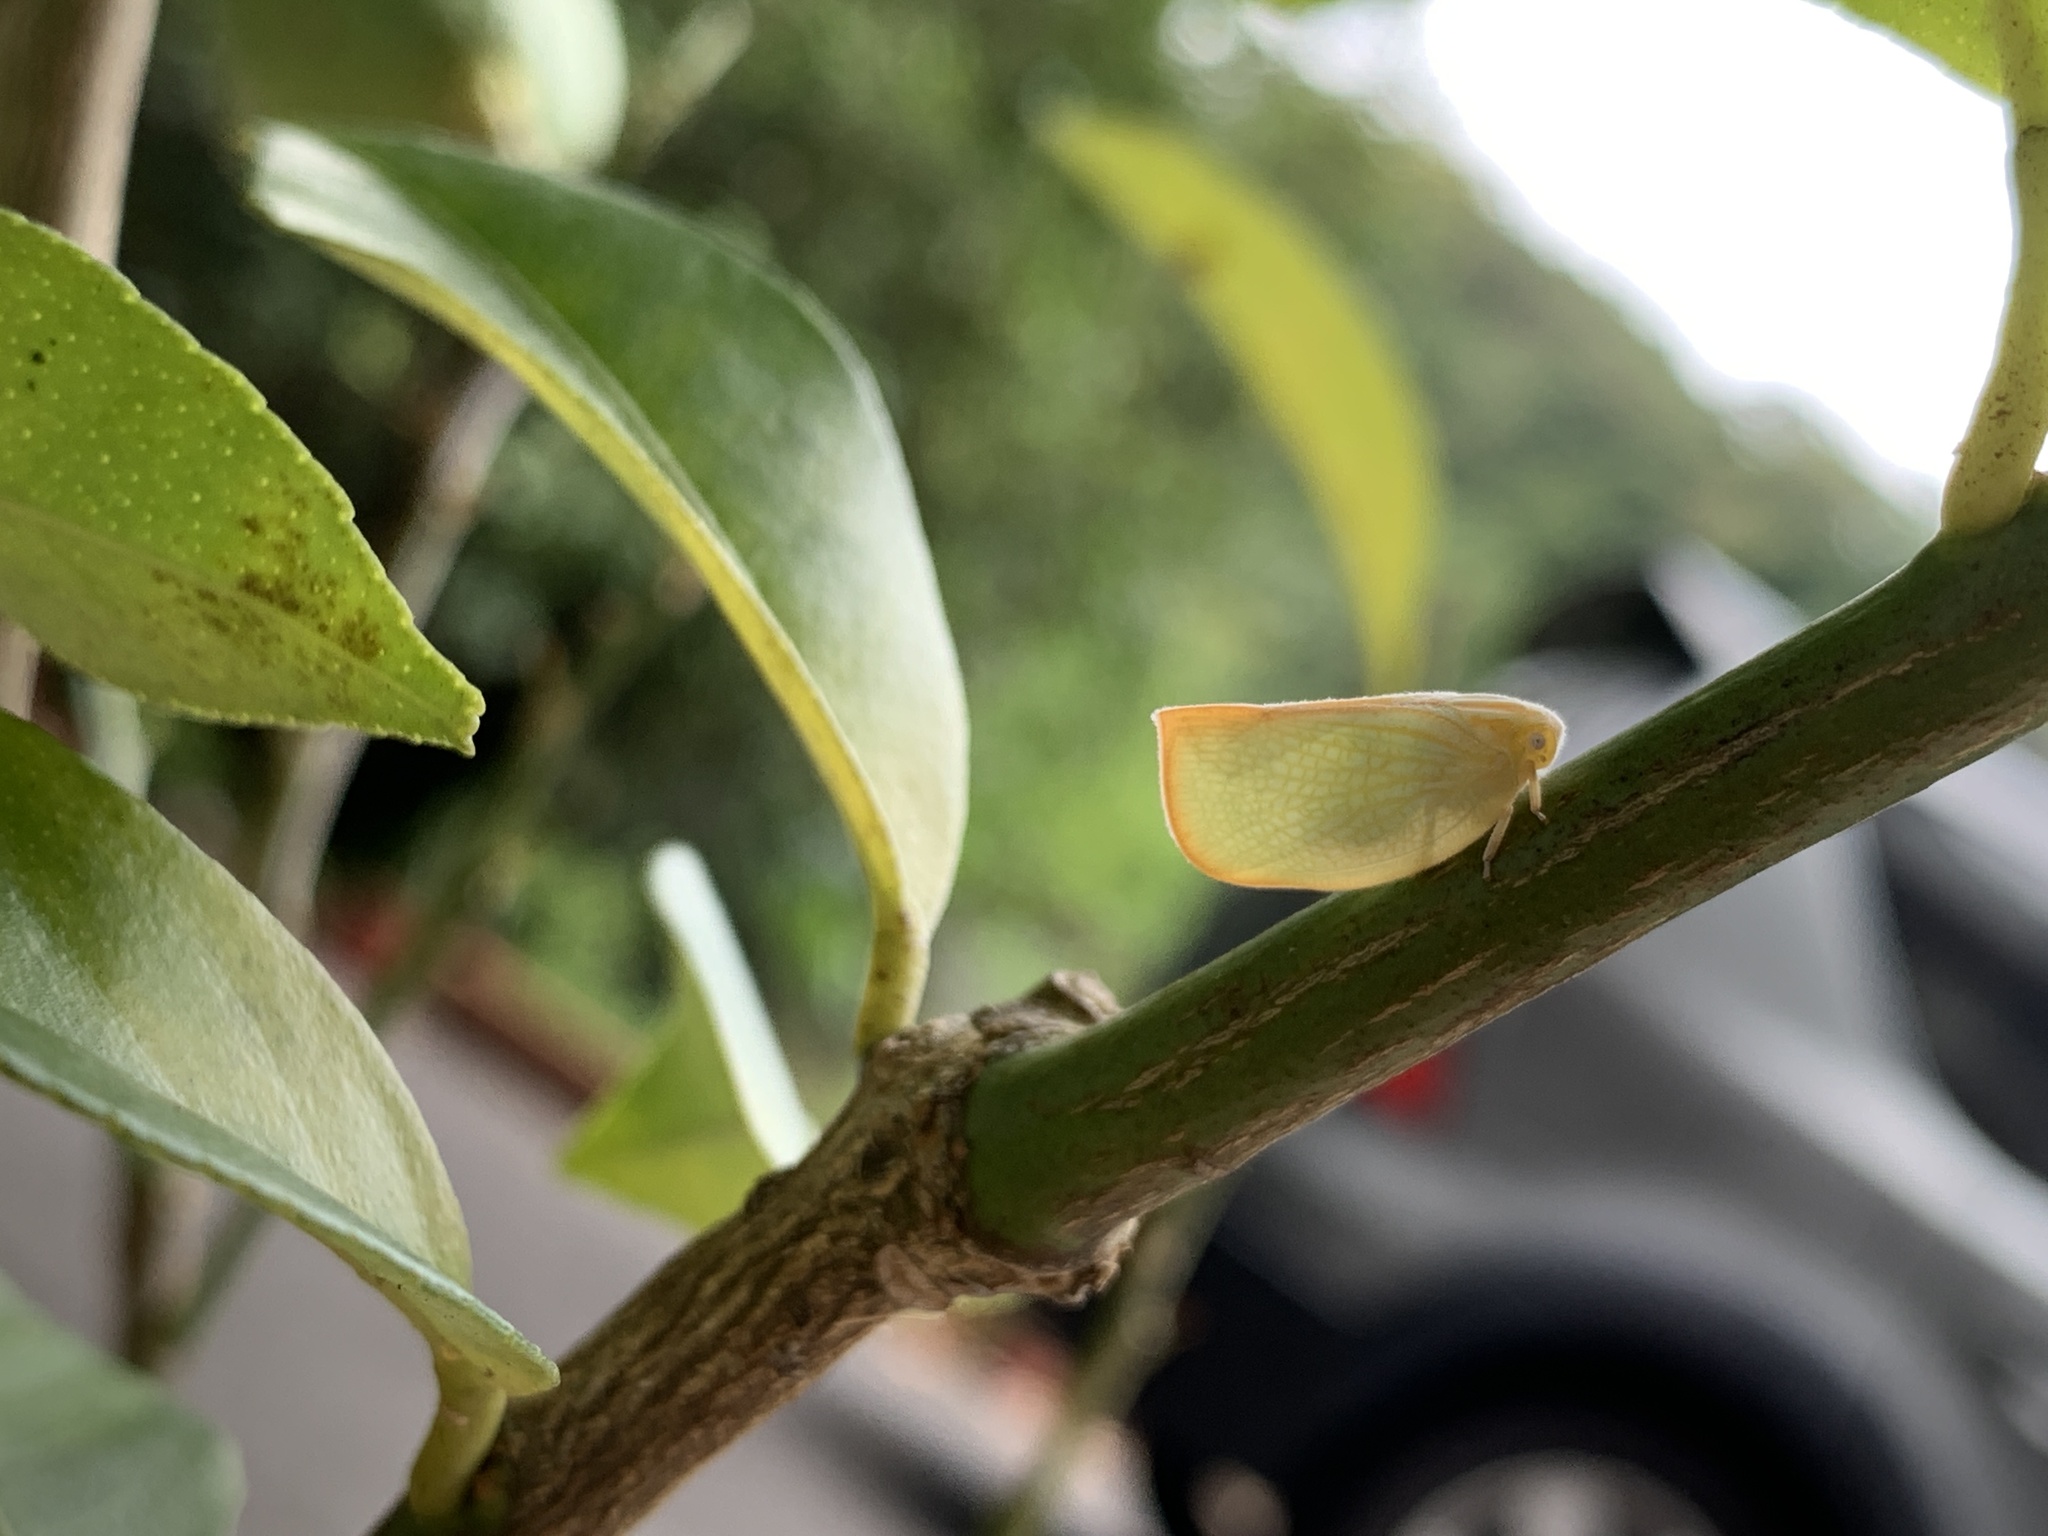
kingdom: Animalia
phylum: Arthropoda
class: Insecta
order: Hemiptera
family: Flatidae
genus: Geisha
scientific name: Geisha distinctissima
